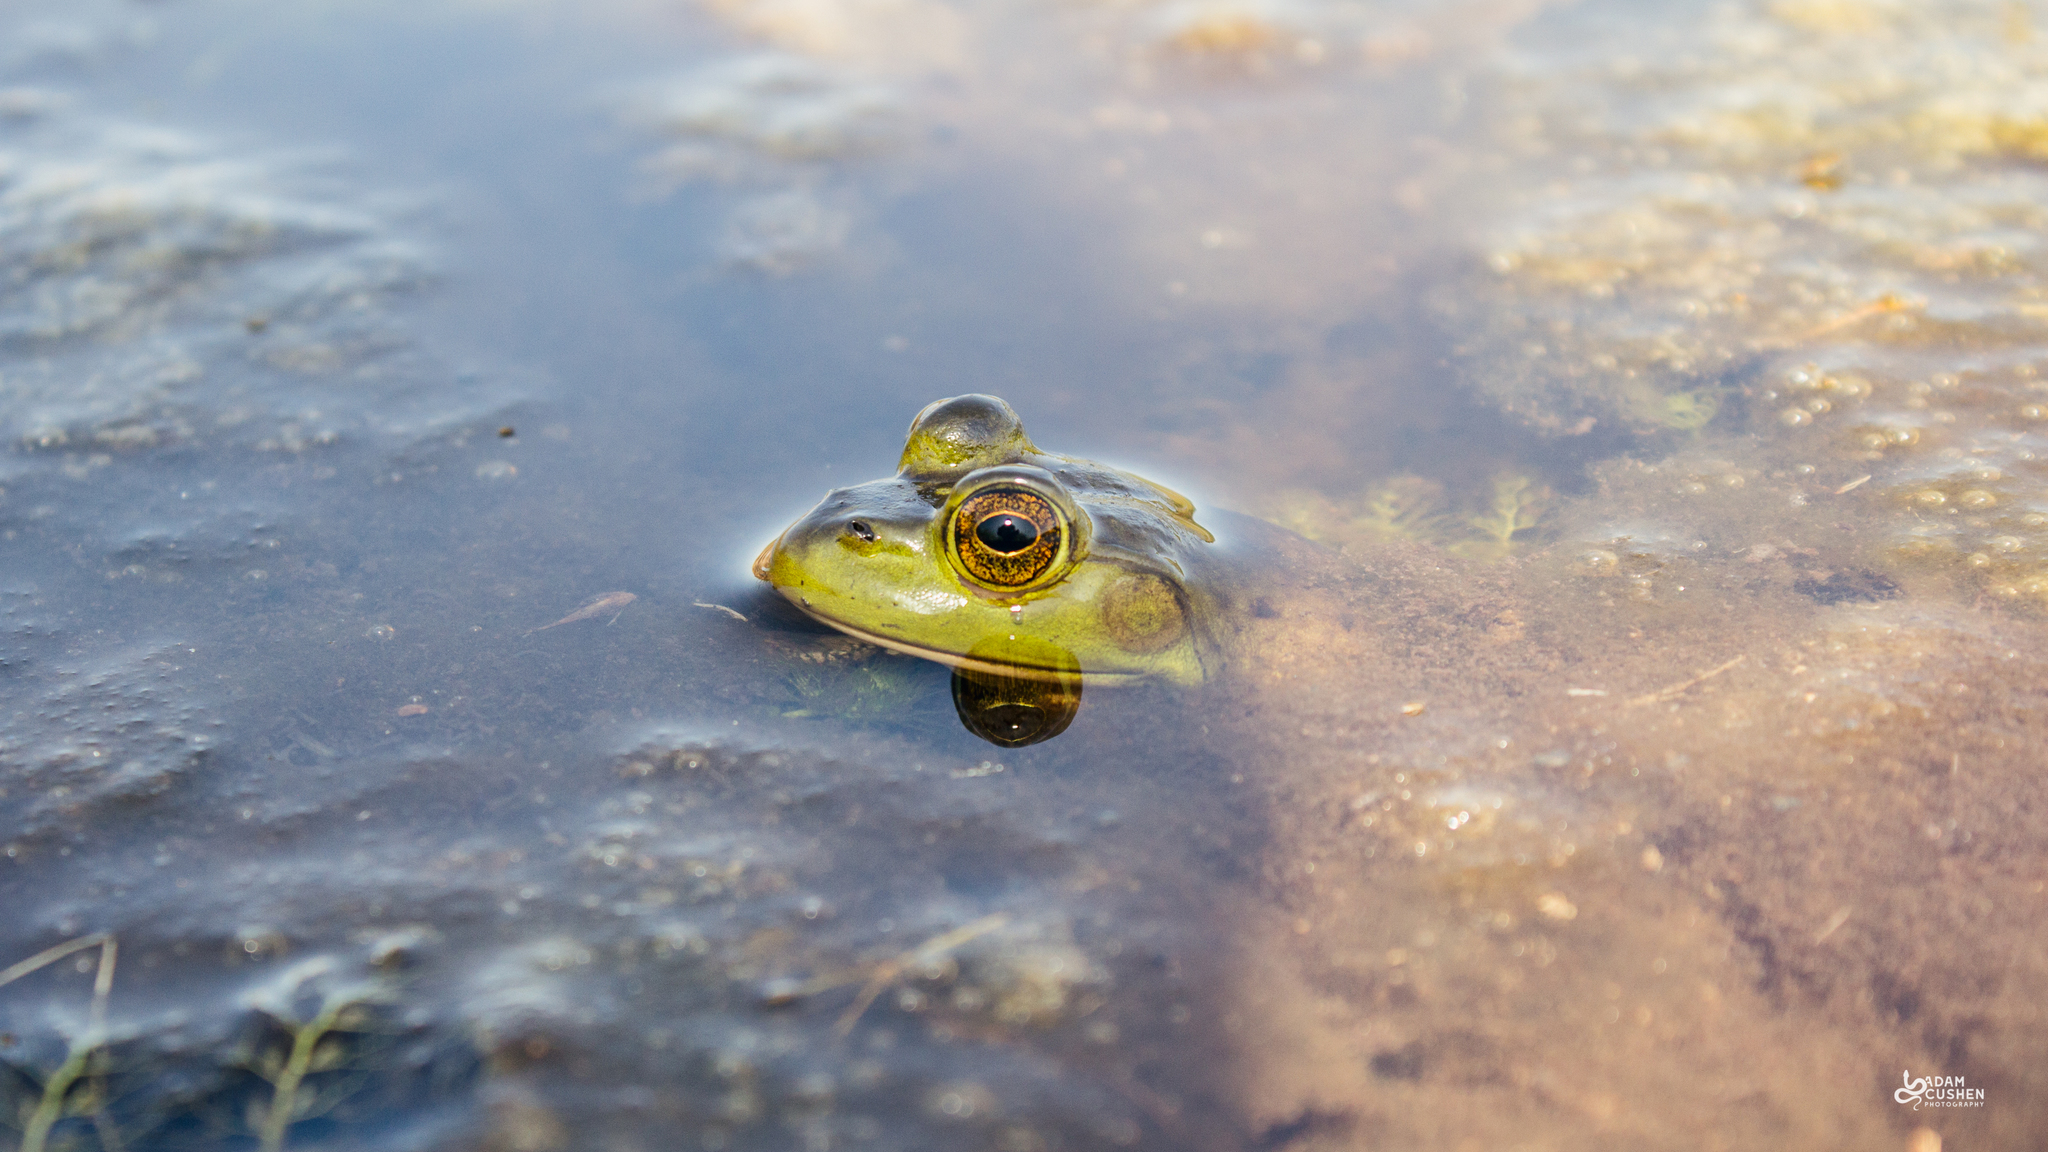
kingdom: Animalia
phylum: Chordata
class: Amphibia
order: Anura
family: Ranidae
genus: Lithobates
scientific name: Lithobates catesbeianus
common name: American bullfrog
